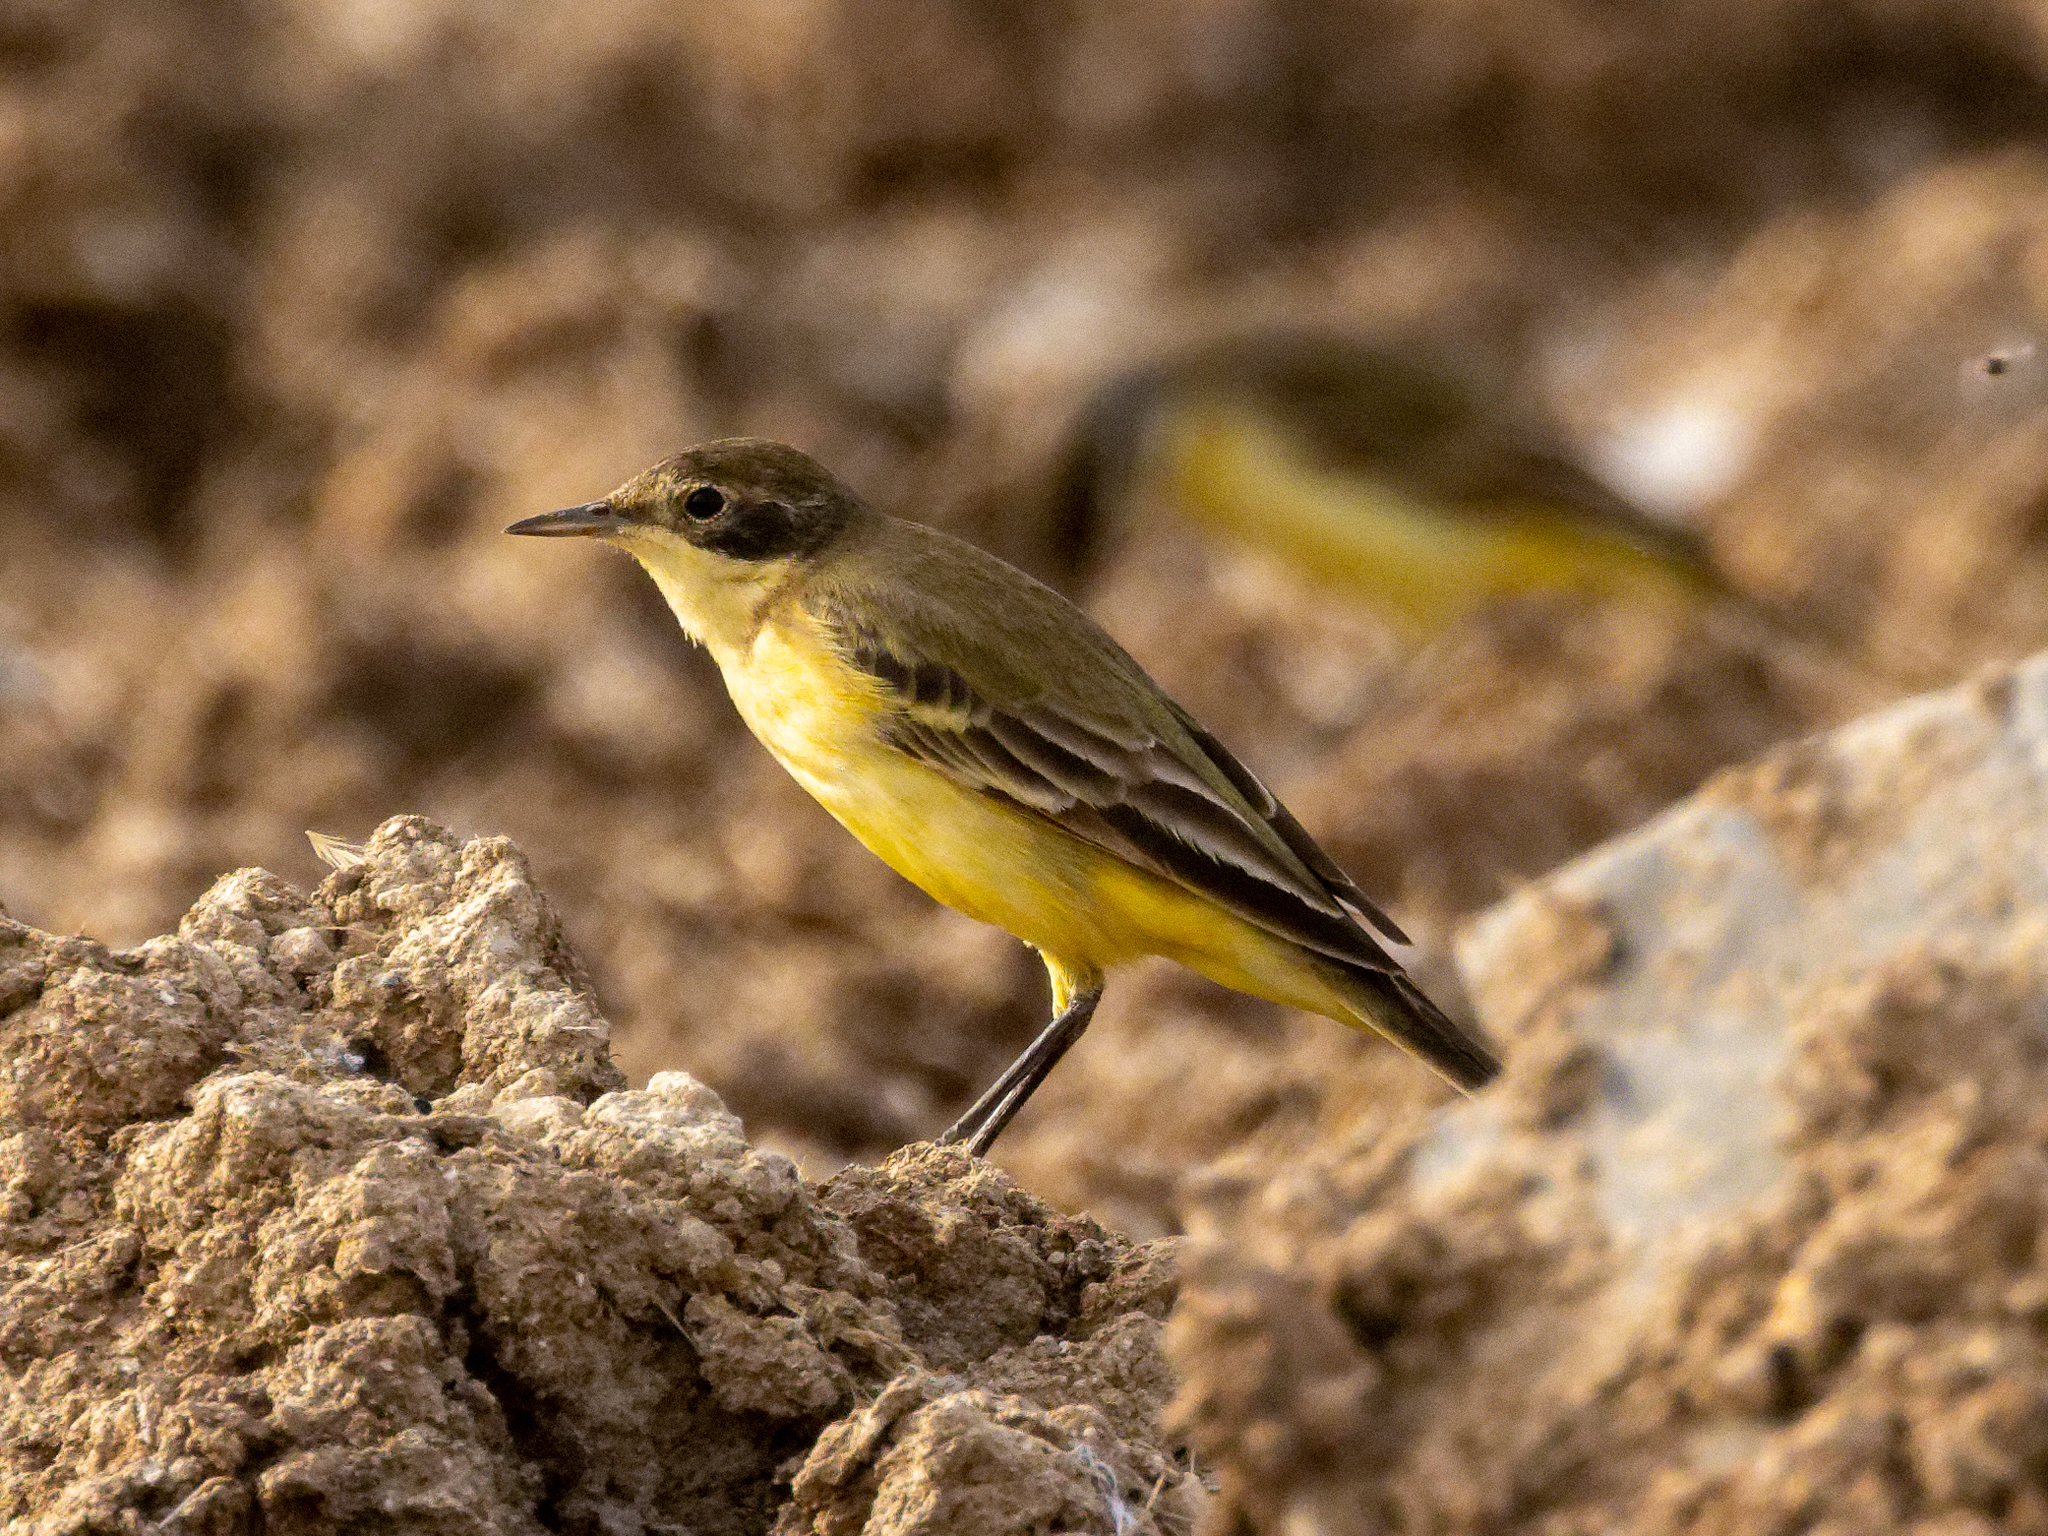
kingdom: Animalia
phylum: Chordata
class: Aves
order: Passeriformes
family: Motacillidae
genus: Motacilla
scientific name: Motacilla flava
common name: Western yellow wagtail
